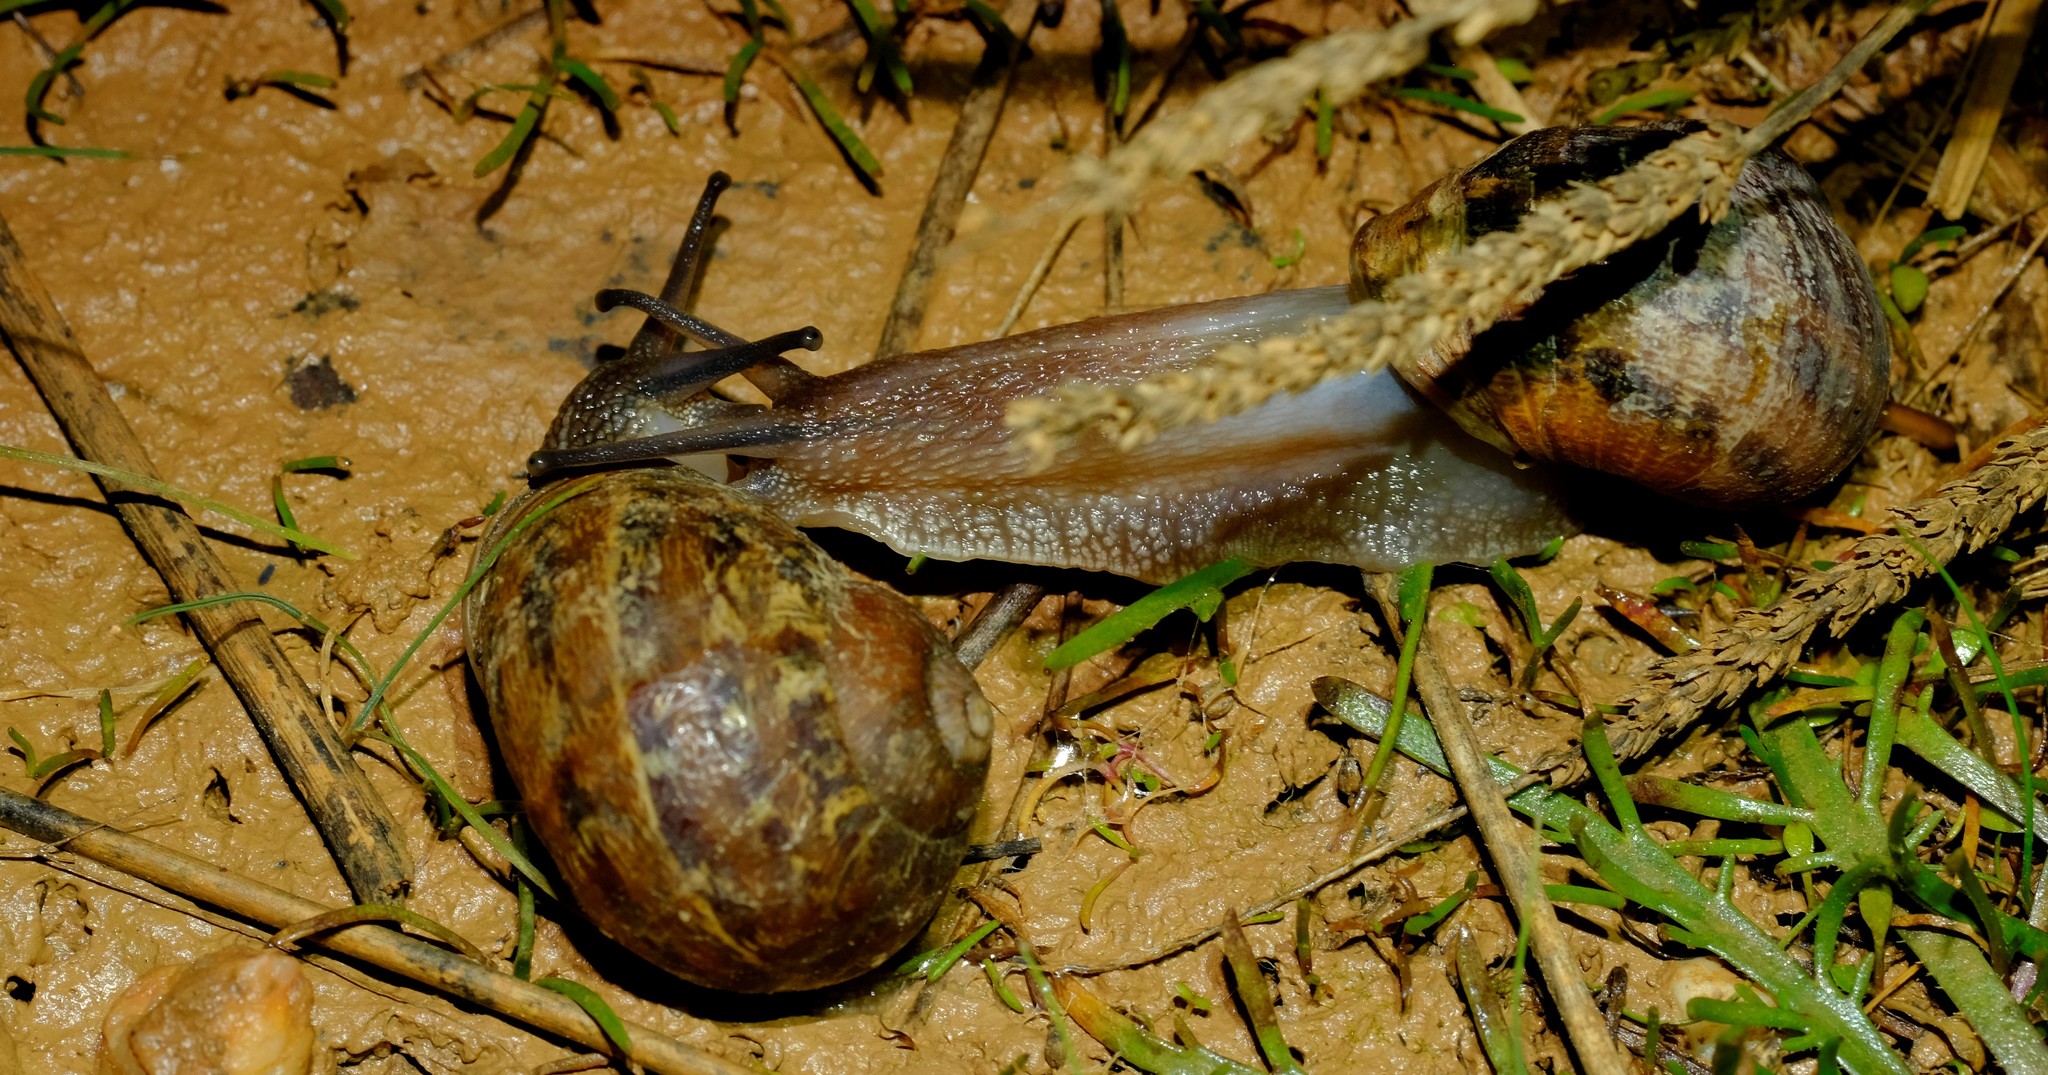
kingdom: Animalia
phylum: Mollusca
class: Gastropoda
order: Stylommatophora
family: Helicidae
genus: Cornu
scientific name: Cornu aspersum
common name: Brown garden snail
